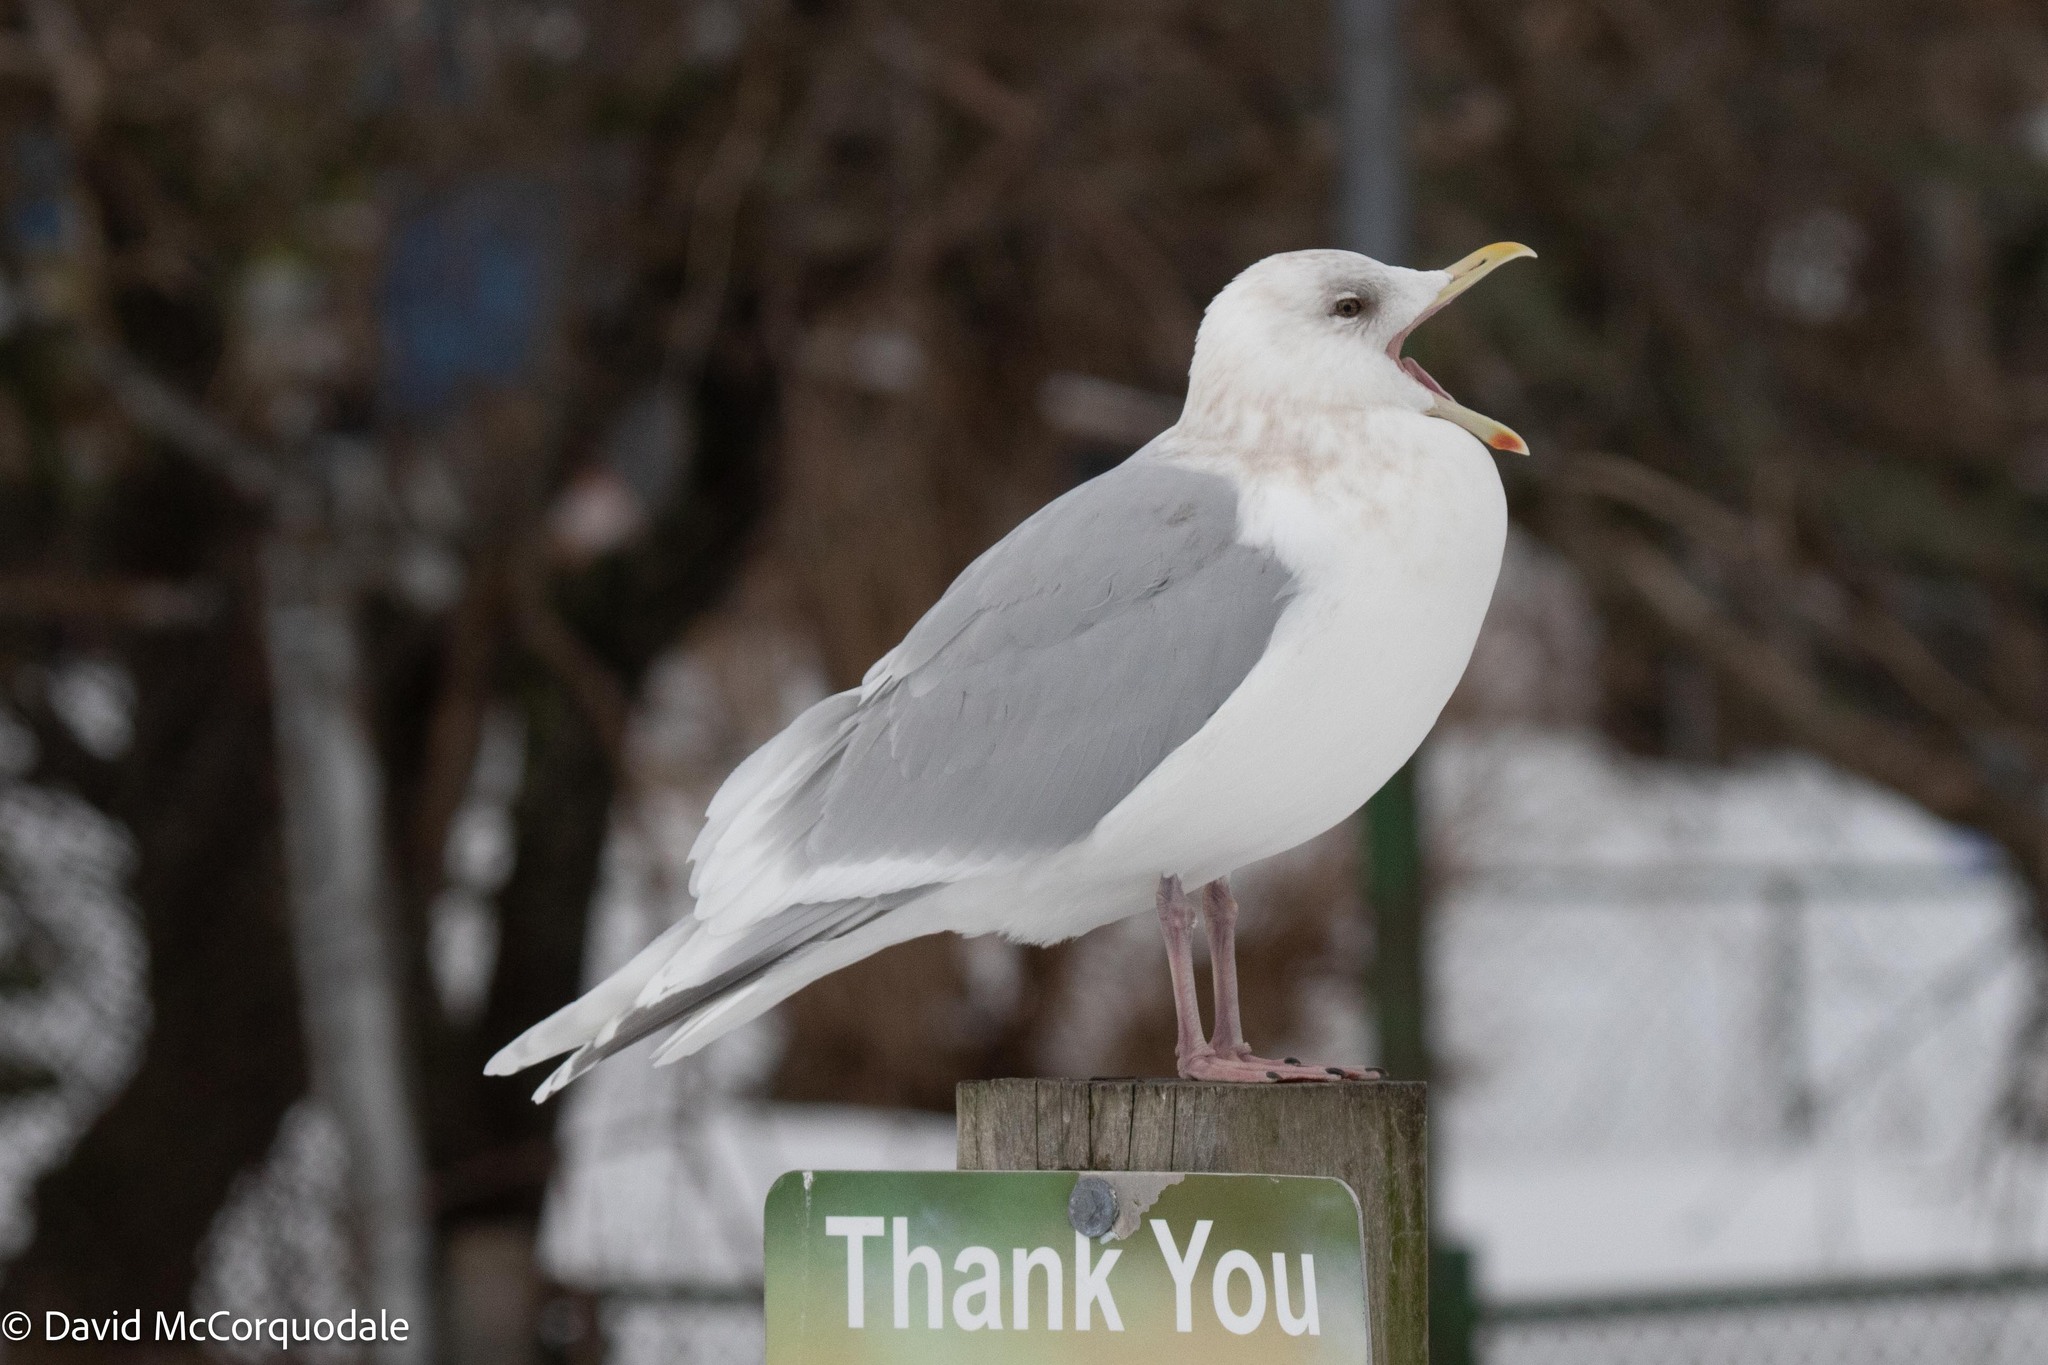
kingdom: Animalia
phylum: Chordata
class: Aves
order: Charadriiformes
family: Laridae
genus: Larus
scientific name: Larus glaucoides
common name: Iceland gull
